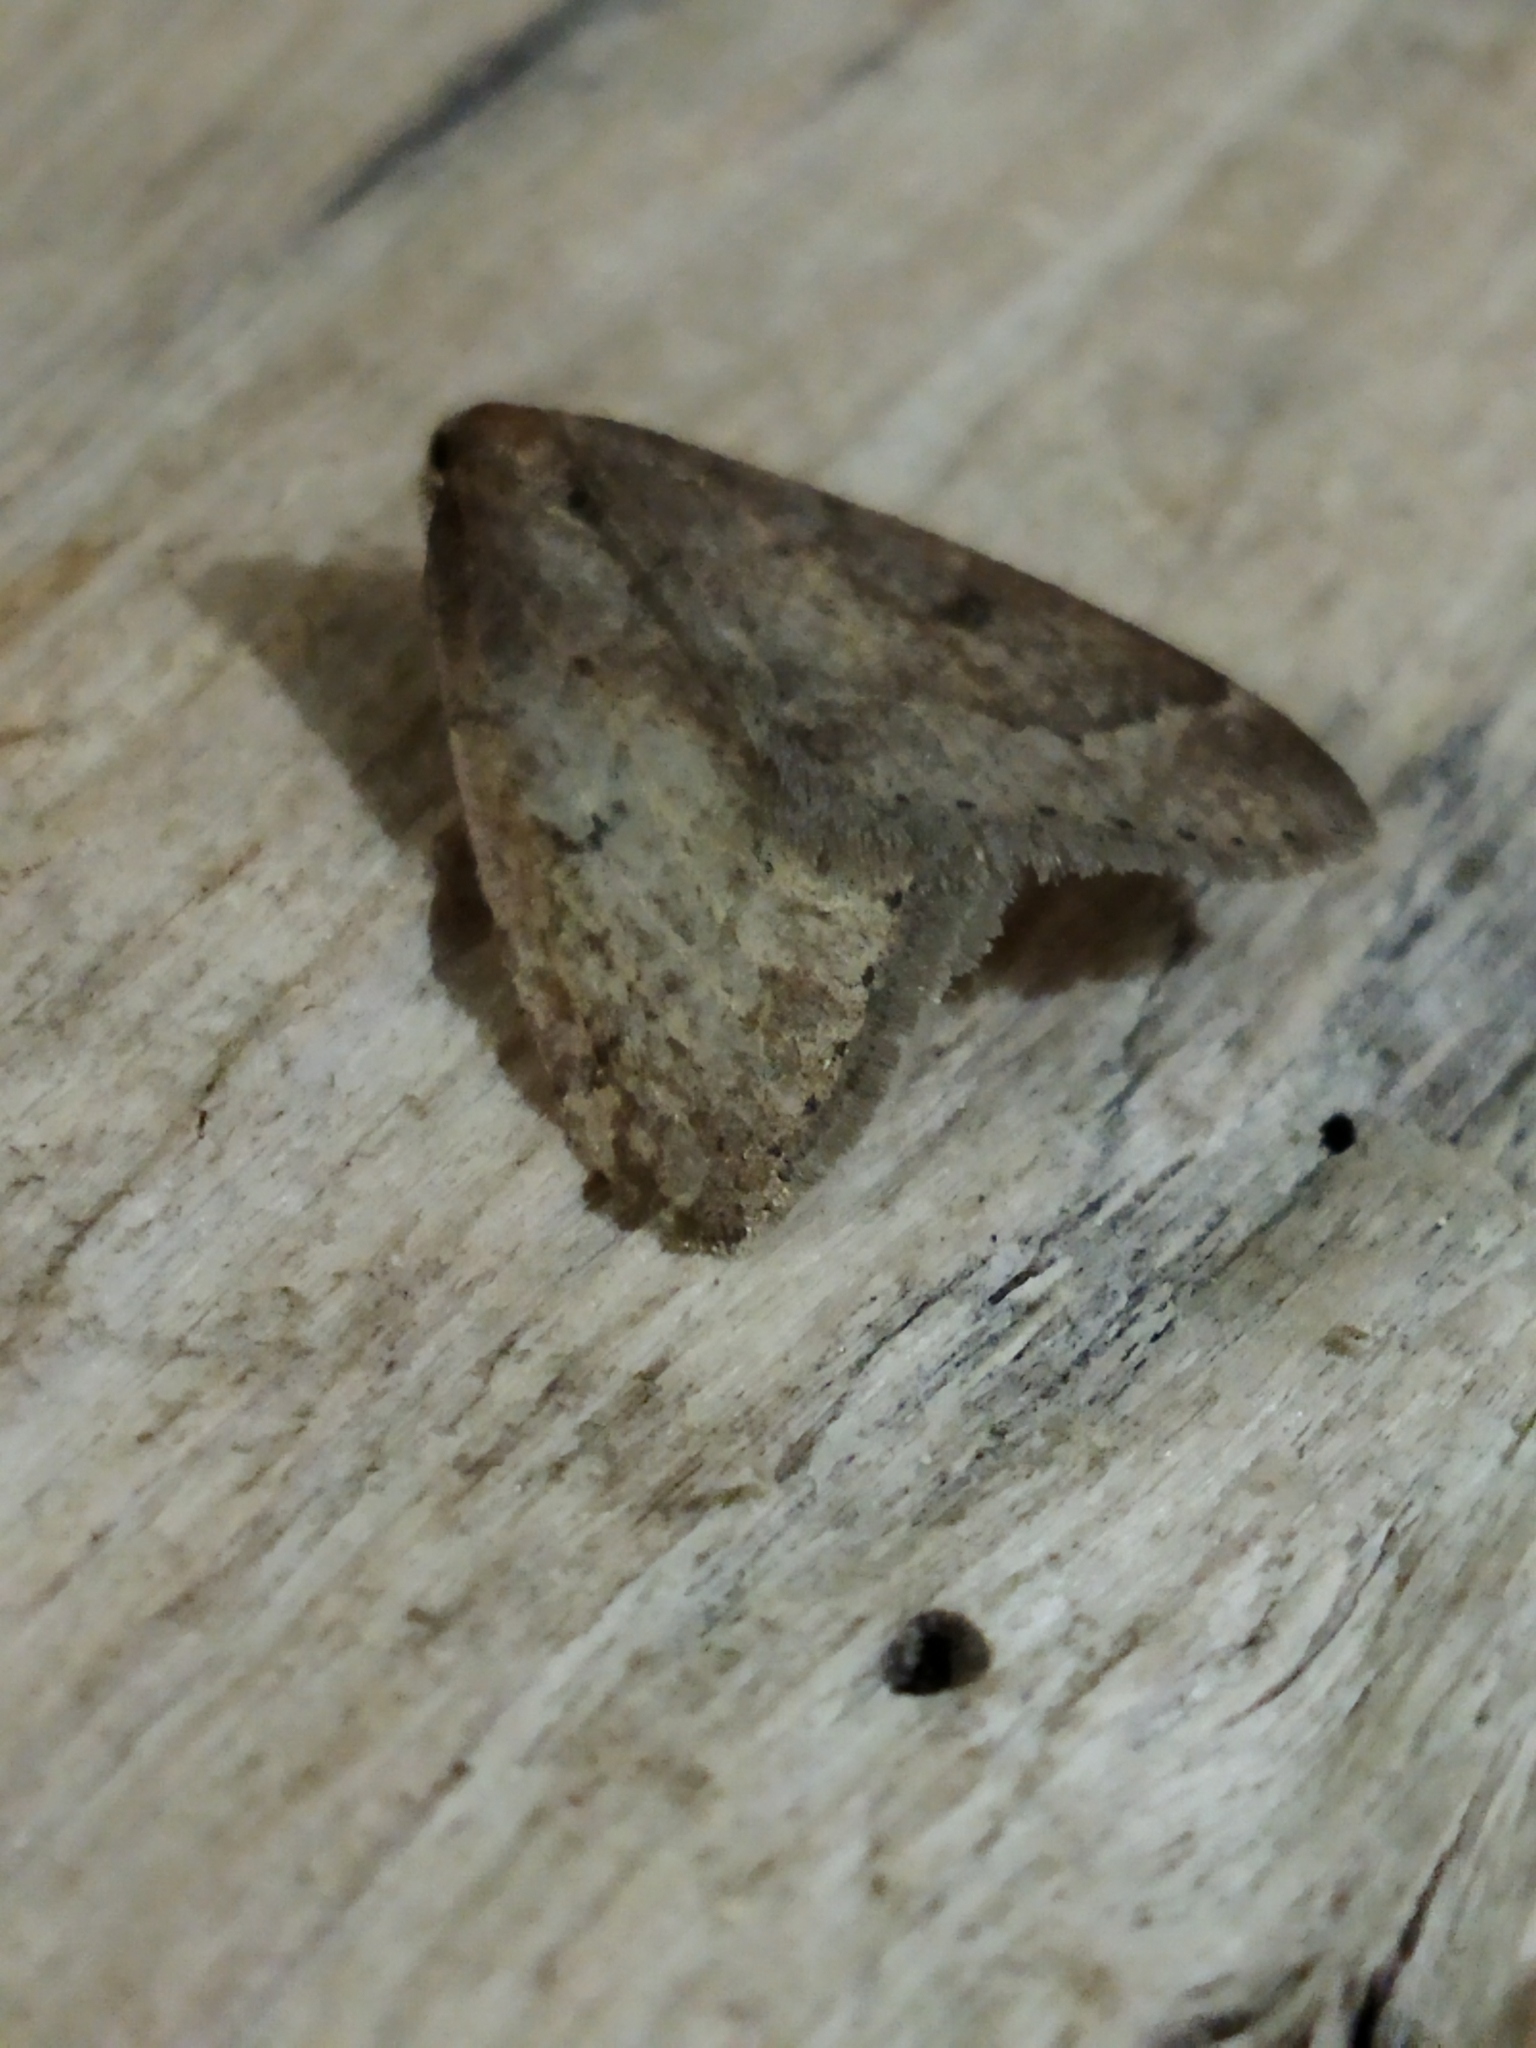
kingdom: Animalia
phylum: Arthropoda
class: Insecta
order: Lepidoptera
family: Geometridae
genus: Theria
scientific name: Theria rupicapraria
